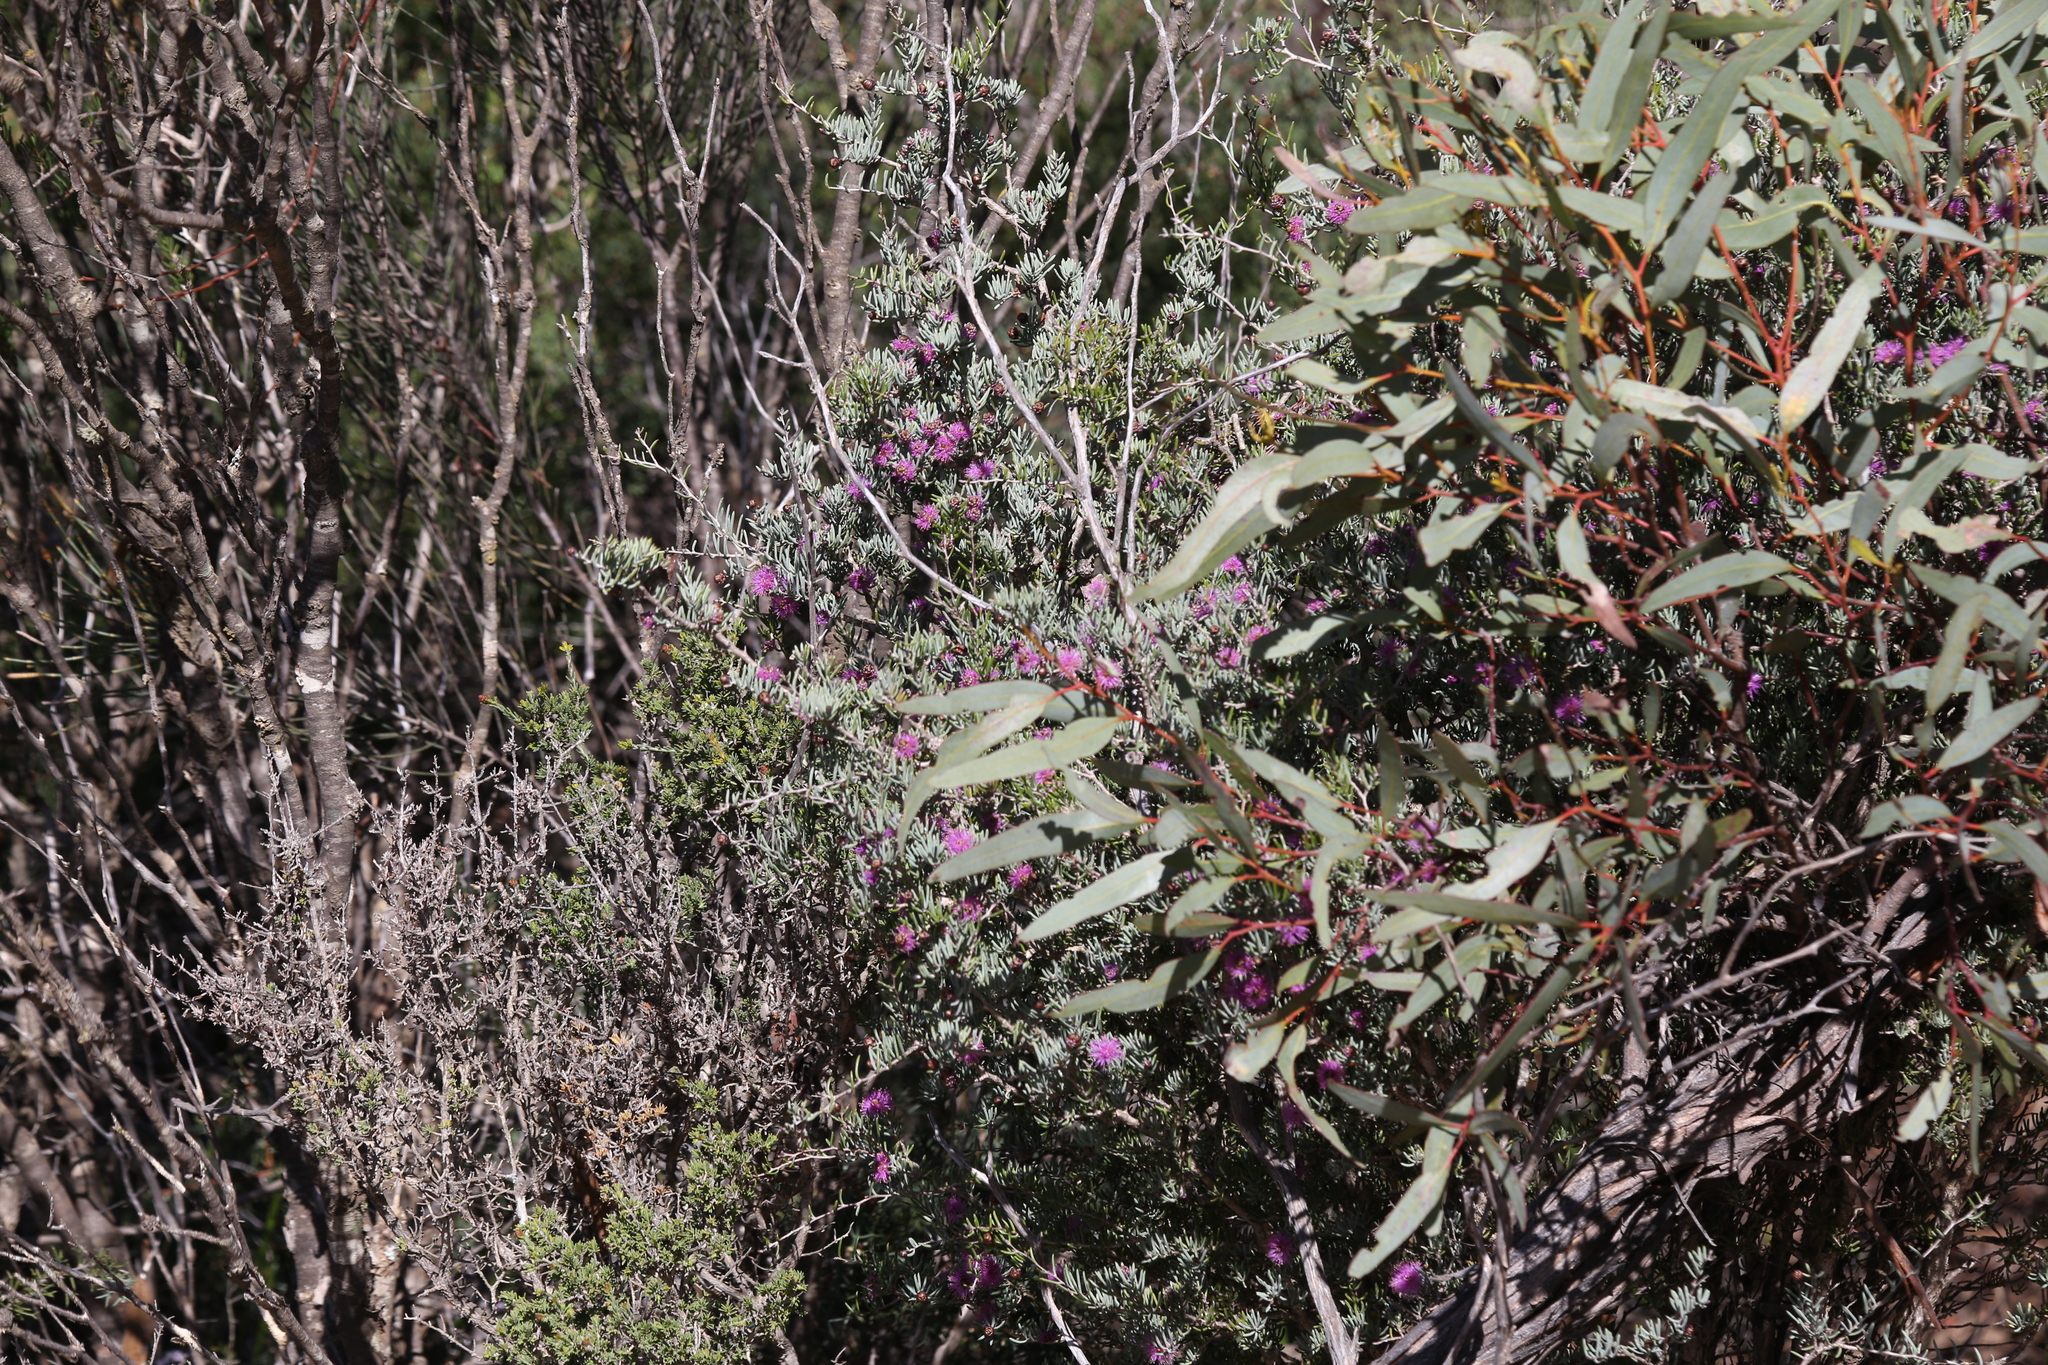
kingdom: Plantae
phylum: Tracheophyta
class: Magnoliopsida
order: Myrtales
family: Myrtaceae
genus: Melaleuca
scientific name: Melaleuca rigidifolia
